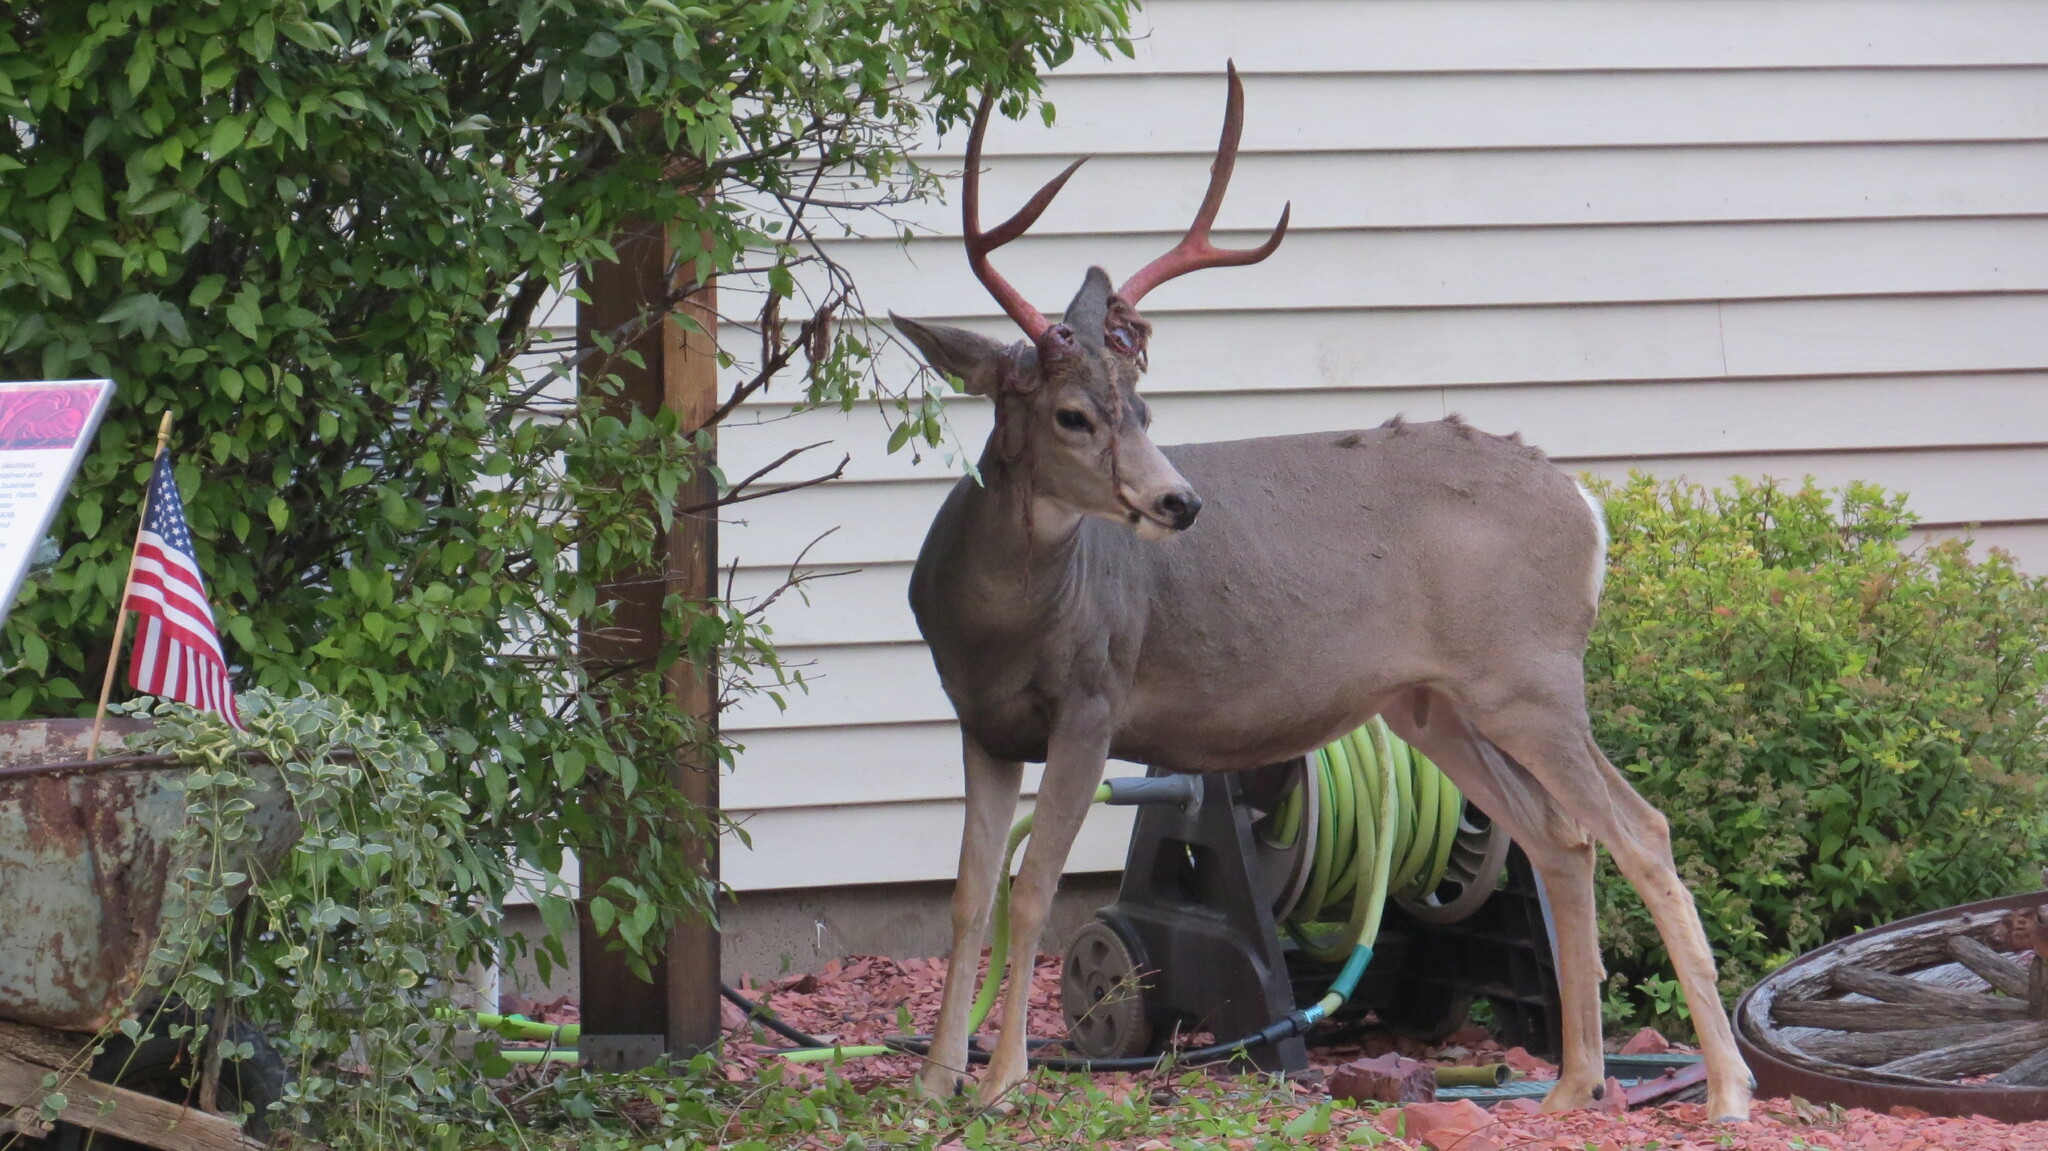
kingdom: Animalia
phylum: Chordata
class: Mammalia
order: Artiodactyla
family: Cervidae
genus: Odocoileus
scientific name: Odocoileus hemionus
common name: Mule deer
